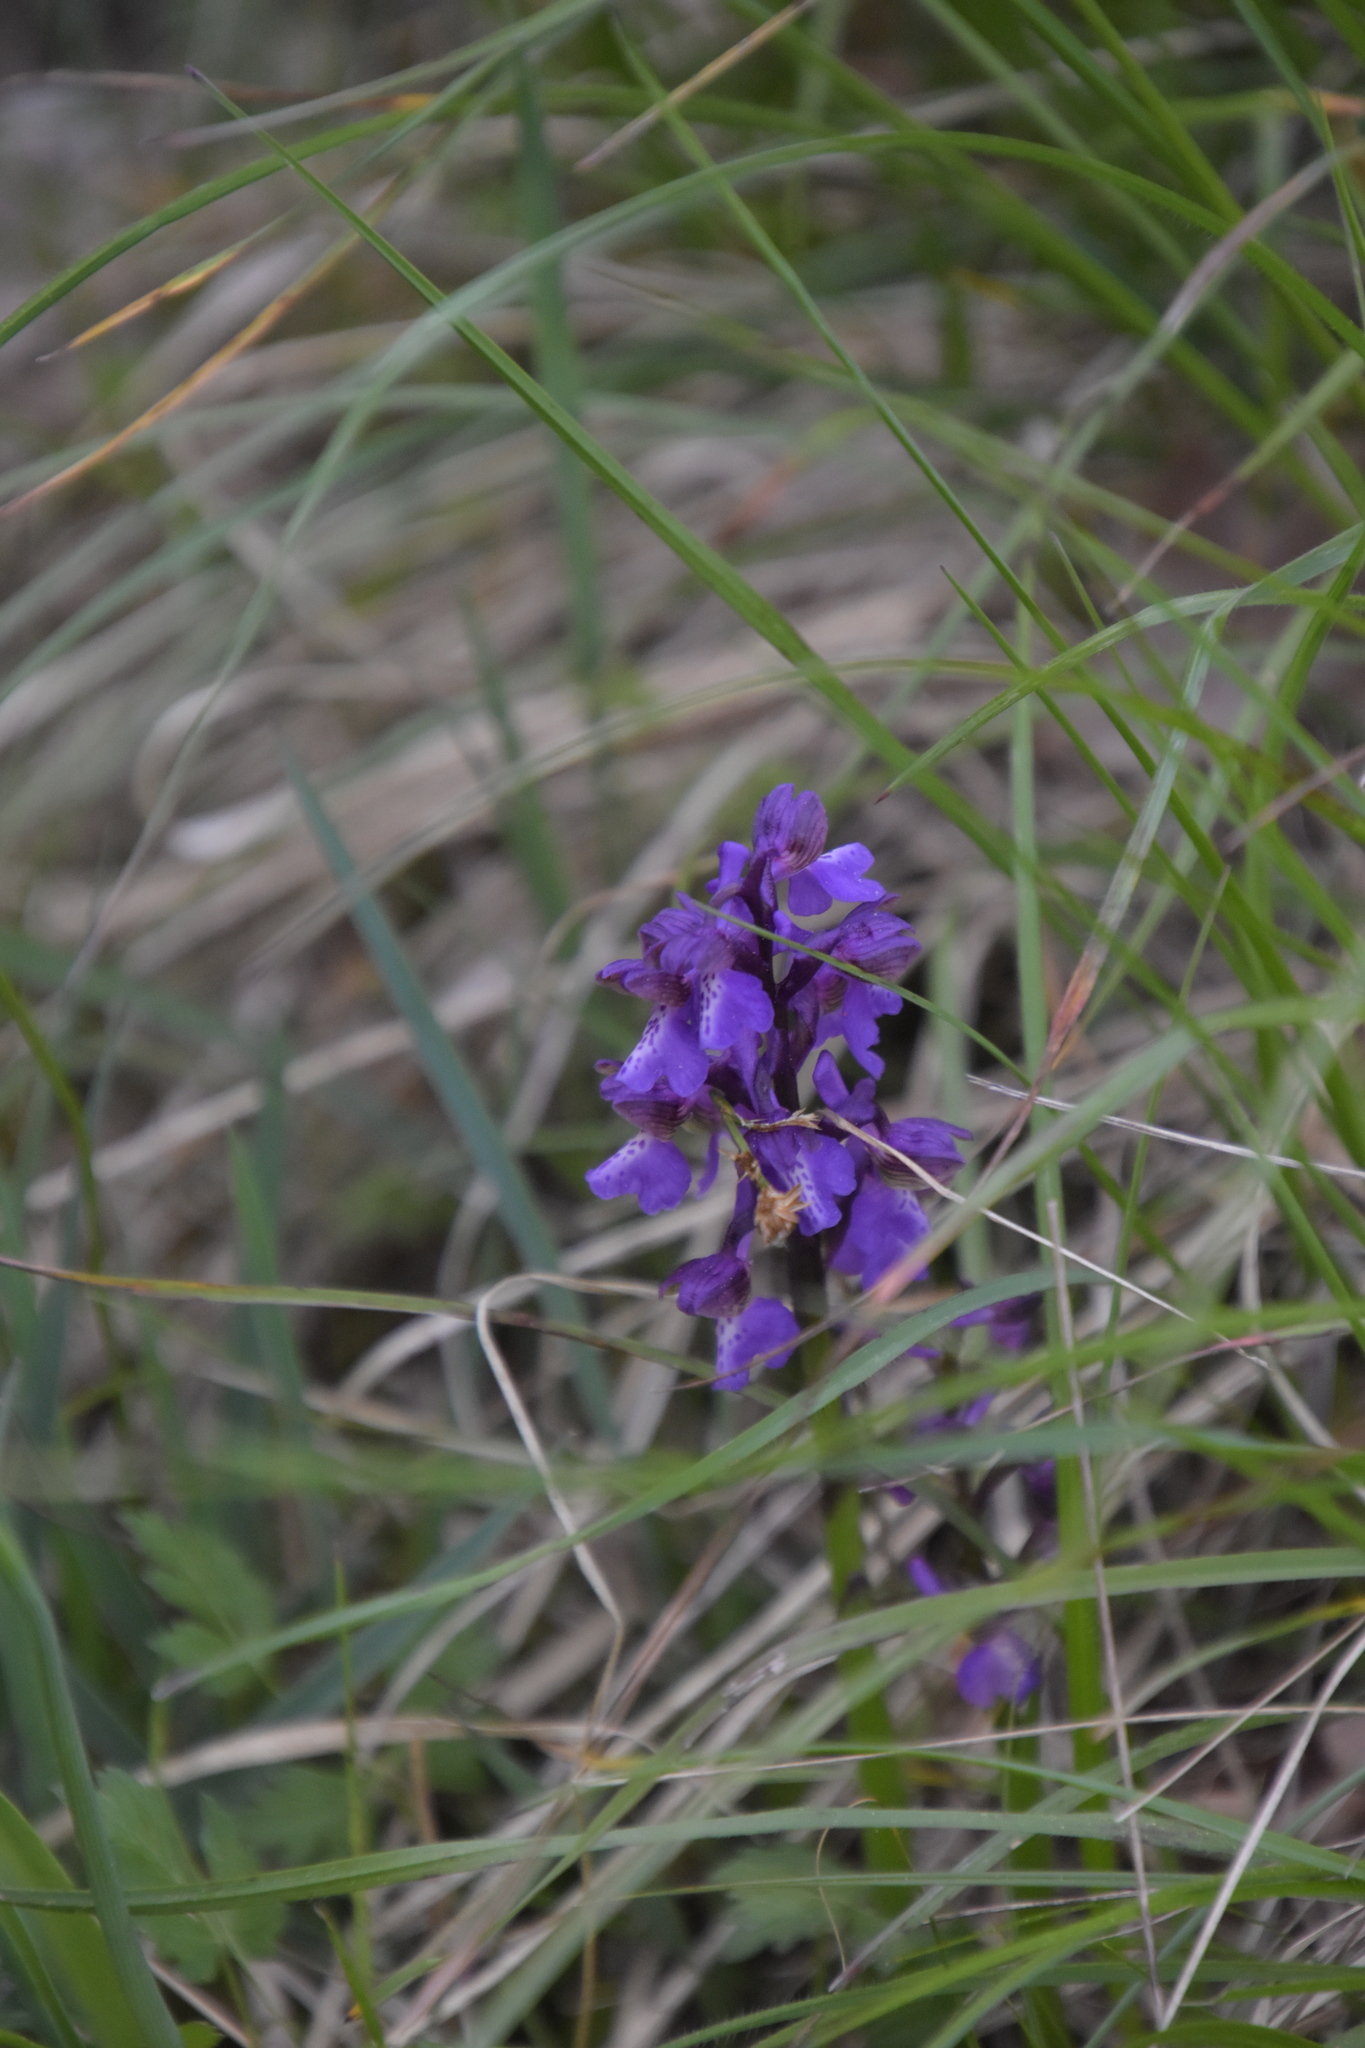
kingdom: Plantae
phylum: Tracheophyta
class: Liliopsida
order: Asparagales
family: Orchidaceae
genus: Anacamptis
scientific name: Anacamptis morio
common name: Green-winged orchid
